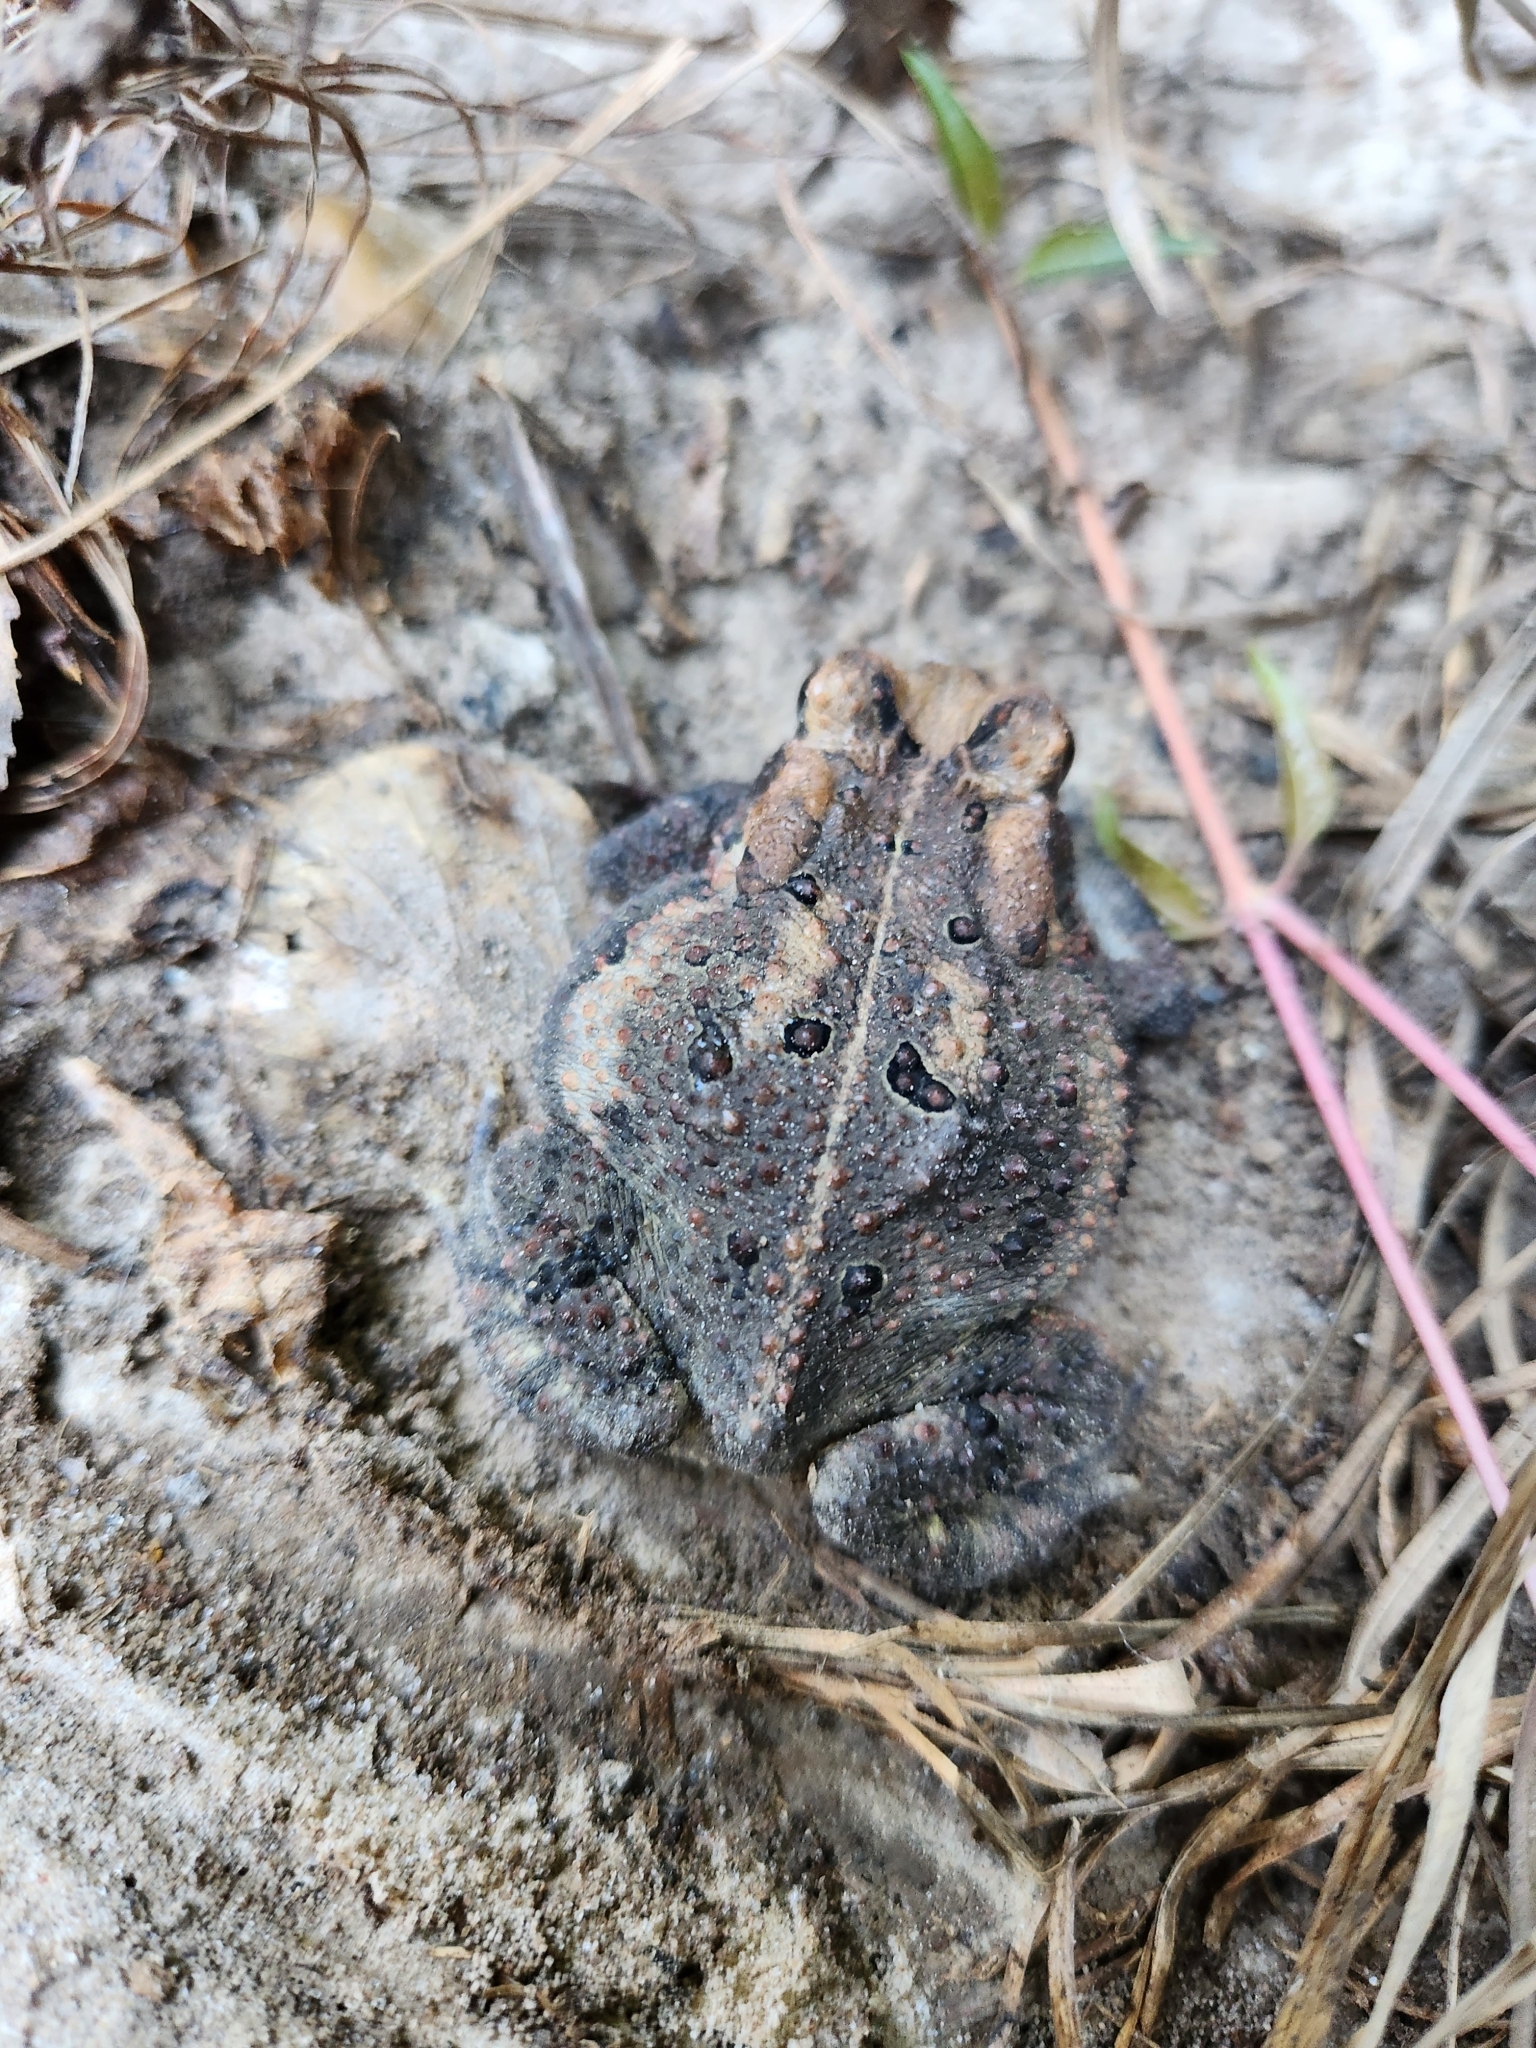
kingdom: Animalia
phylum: Chordata
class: Amphibia
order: Anura
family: Bufonidae
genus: Anaxyrus
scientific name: Anaxyrus fowleri
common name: Fowler's toad
